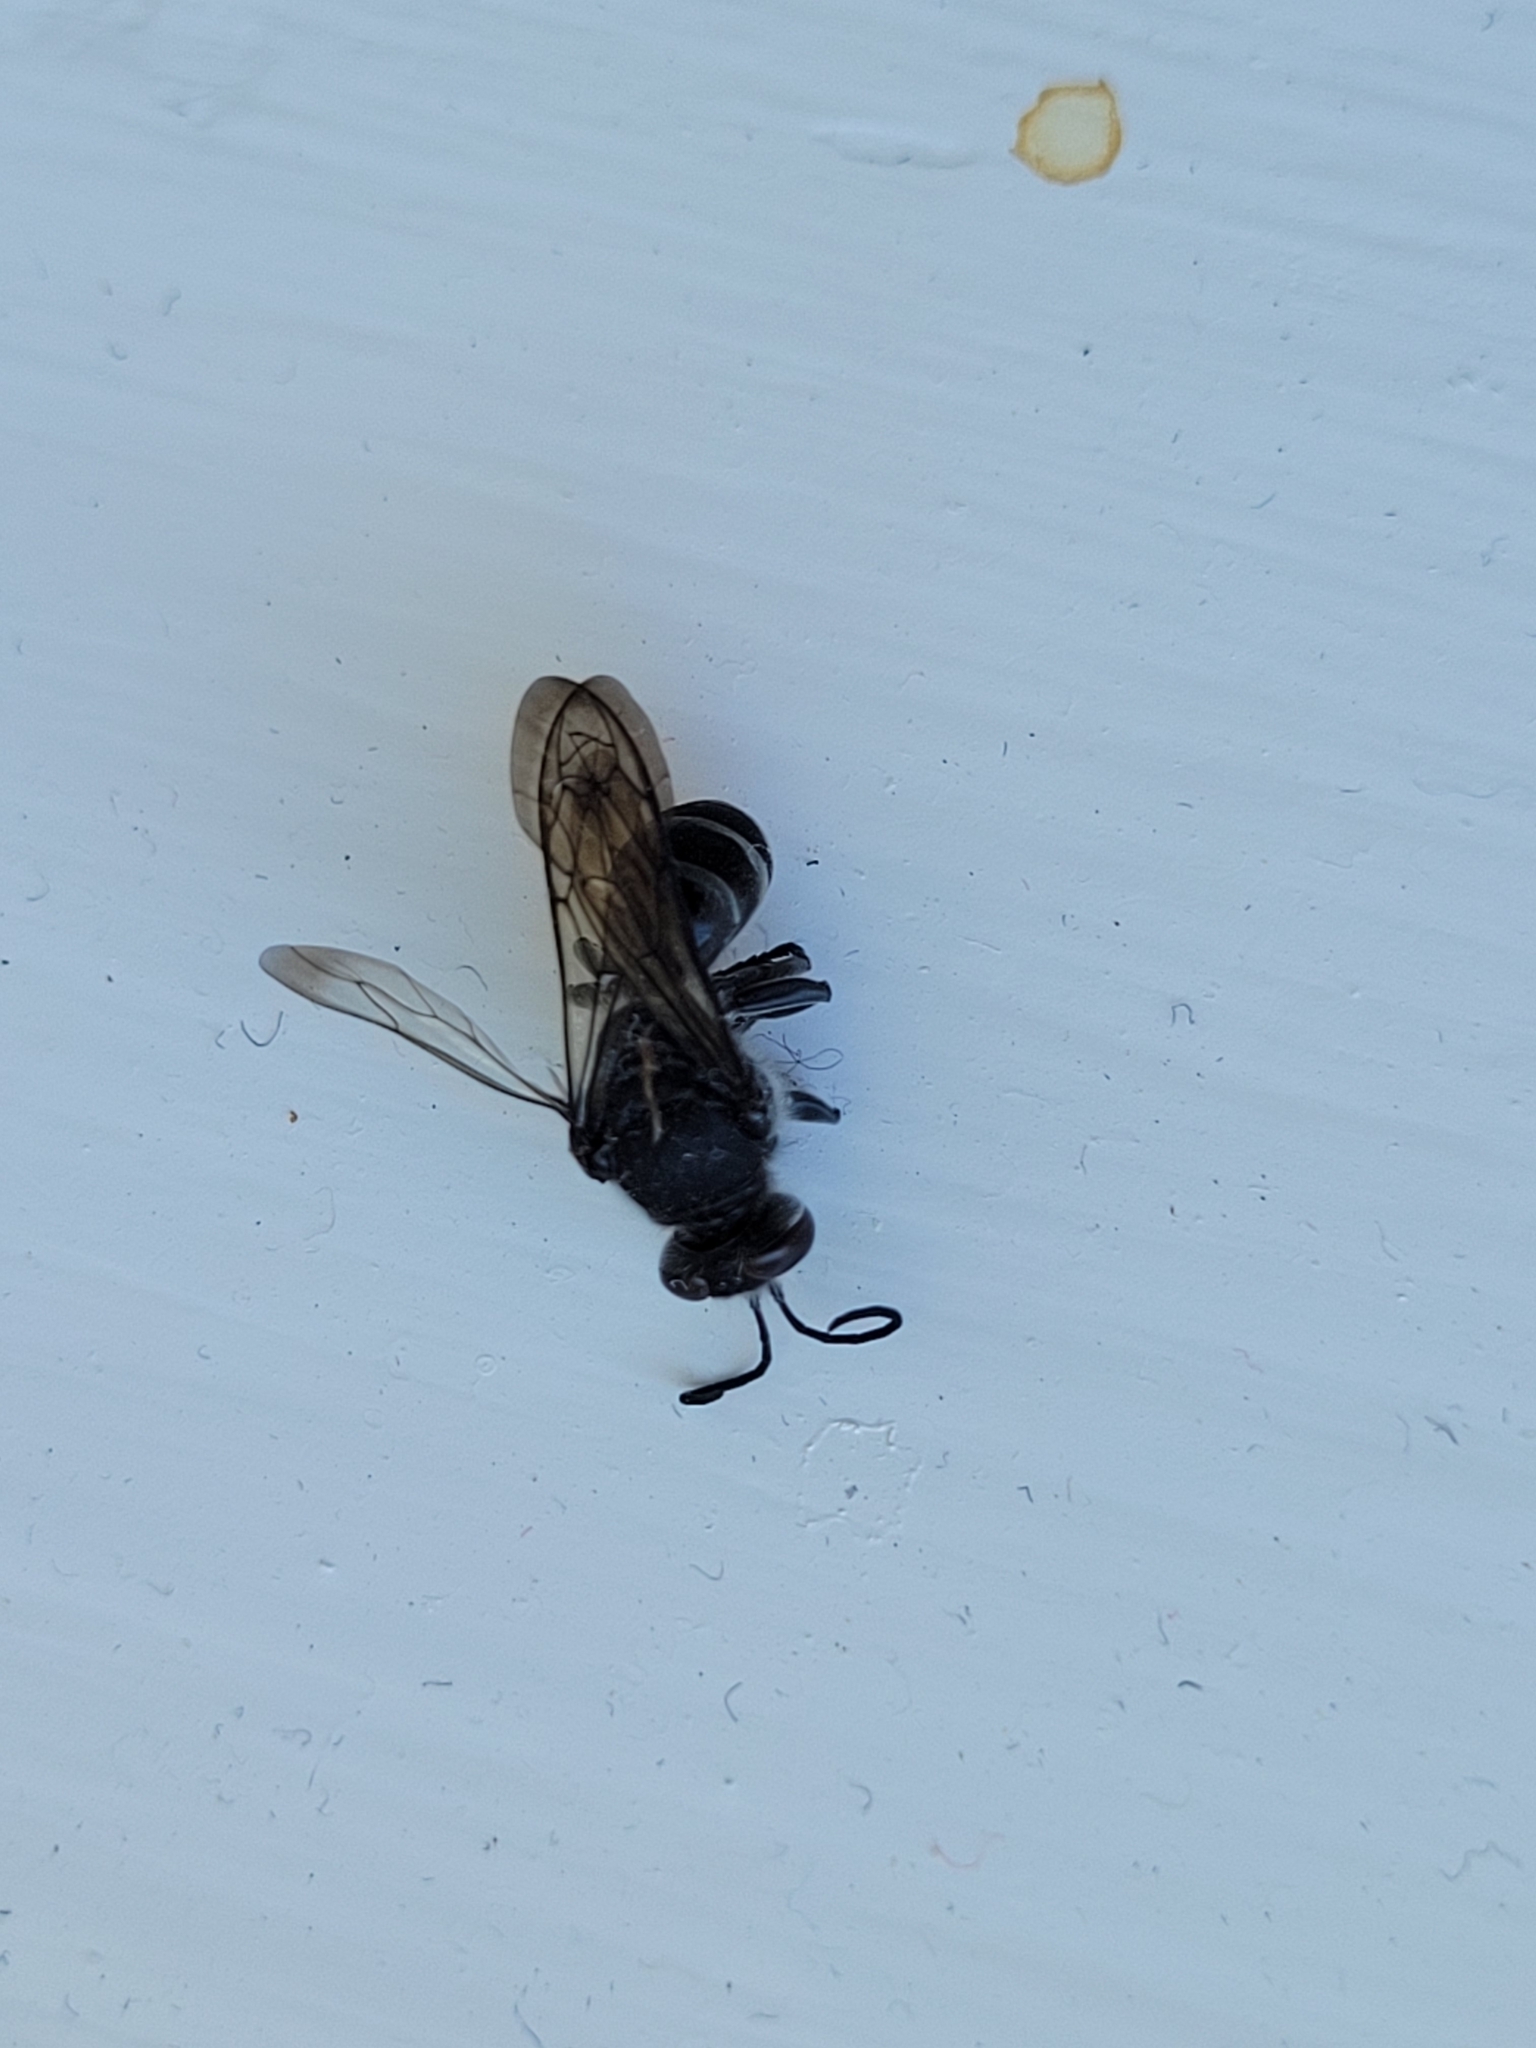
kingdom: Animalia
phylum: Arthropoda
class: Insecta
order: Hymenoptera
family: Crabronidae
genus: Pison
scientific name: Pison spinolae
